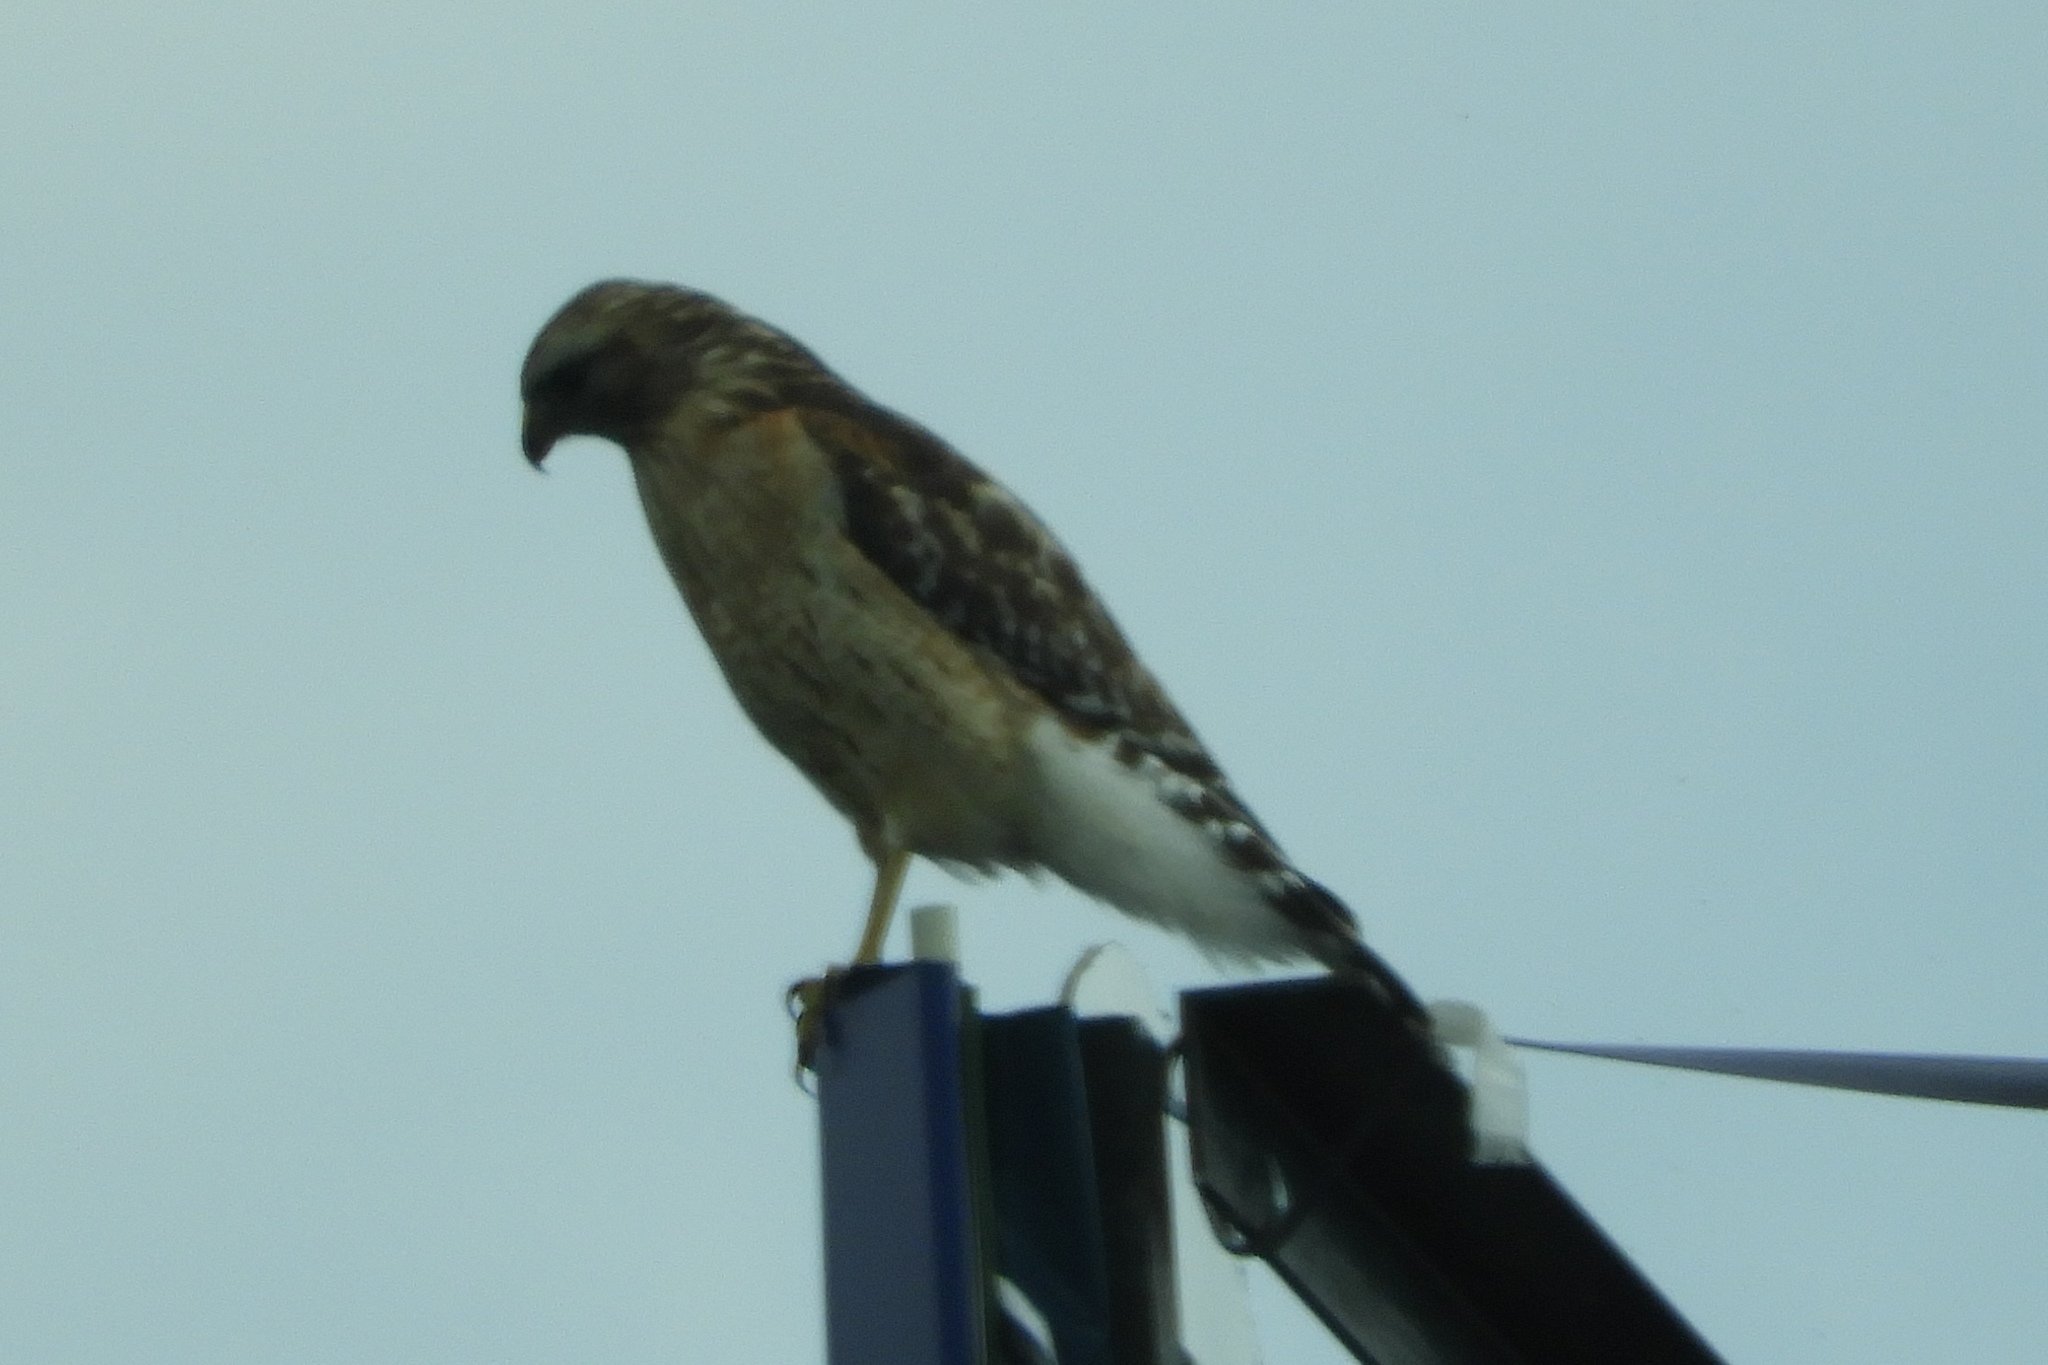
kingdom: Animalia
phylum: Chordata
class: Aves
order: Accipitriformes
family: Accipitridae
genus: Buteo
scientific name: Buteo lineatus
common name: Red-shouldered hawk
